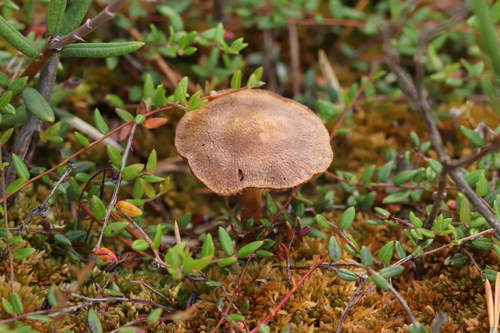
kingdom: Fungi
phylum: Basidiomycota
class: Agaricomycetes
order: Agaricales
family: Cortinariaceae
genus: Cortinarius
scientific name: Cortinarius chrysolitus
